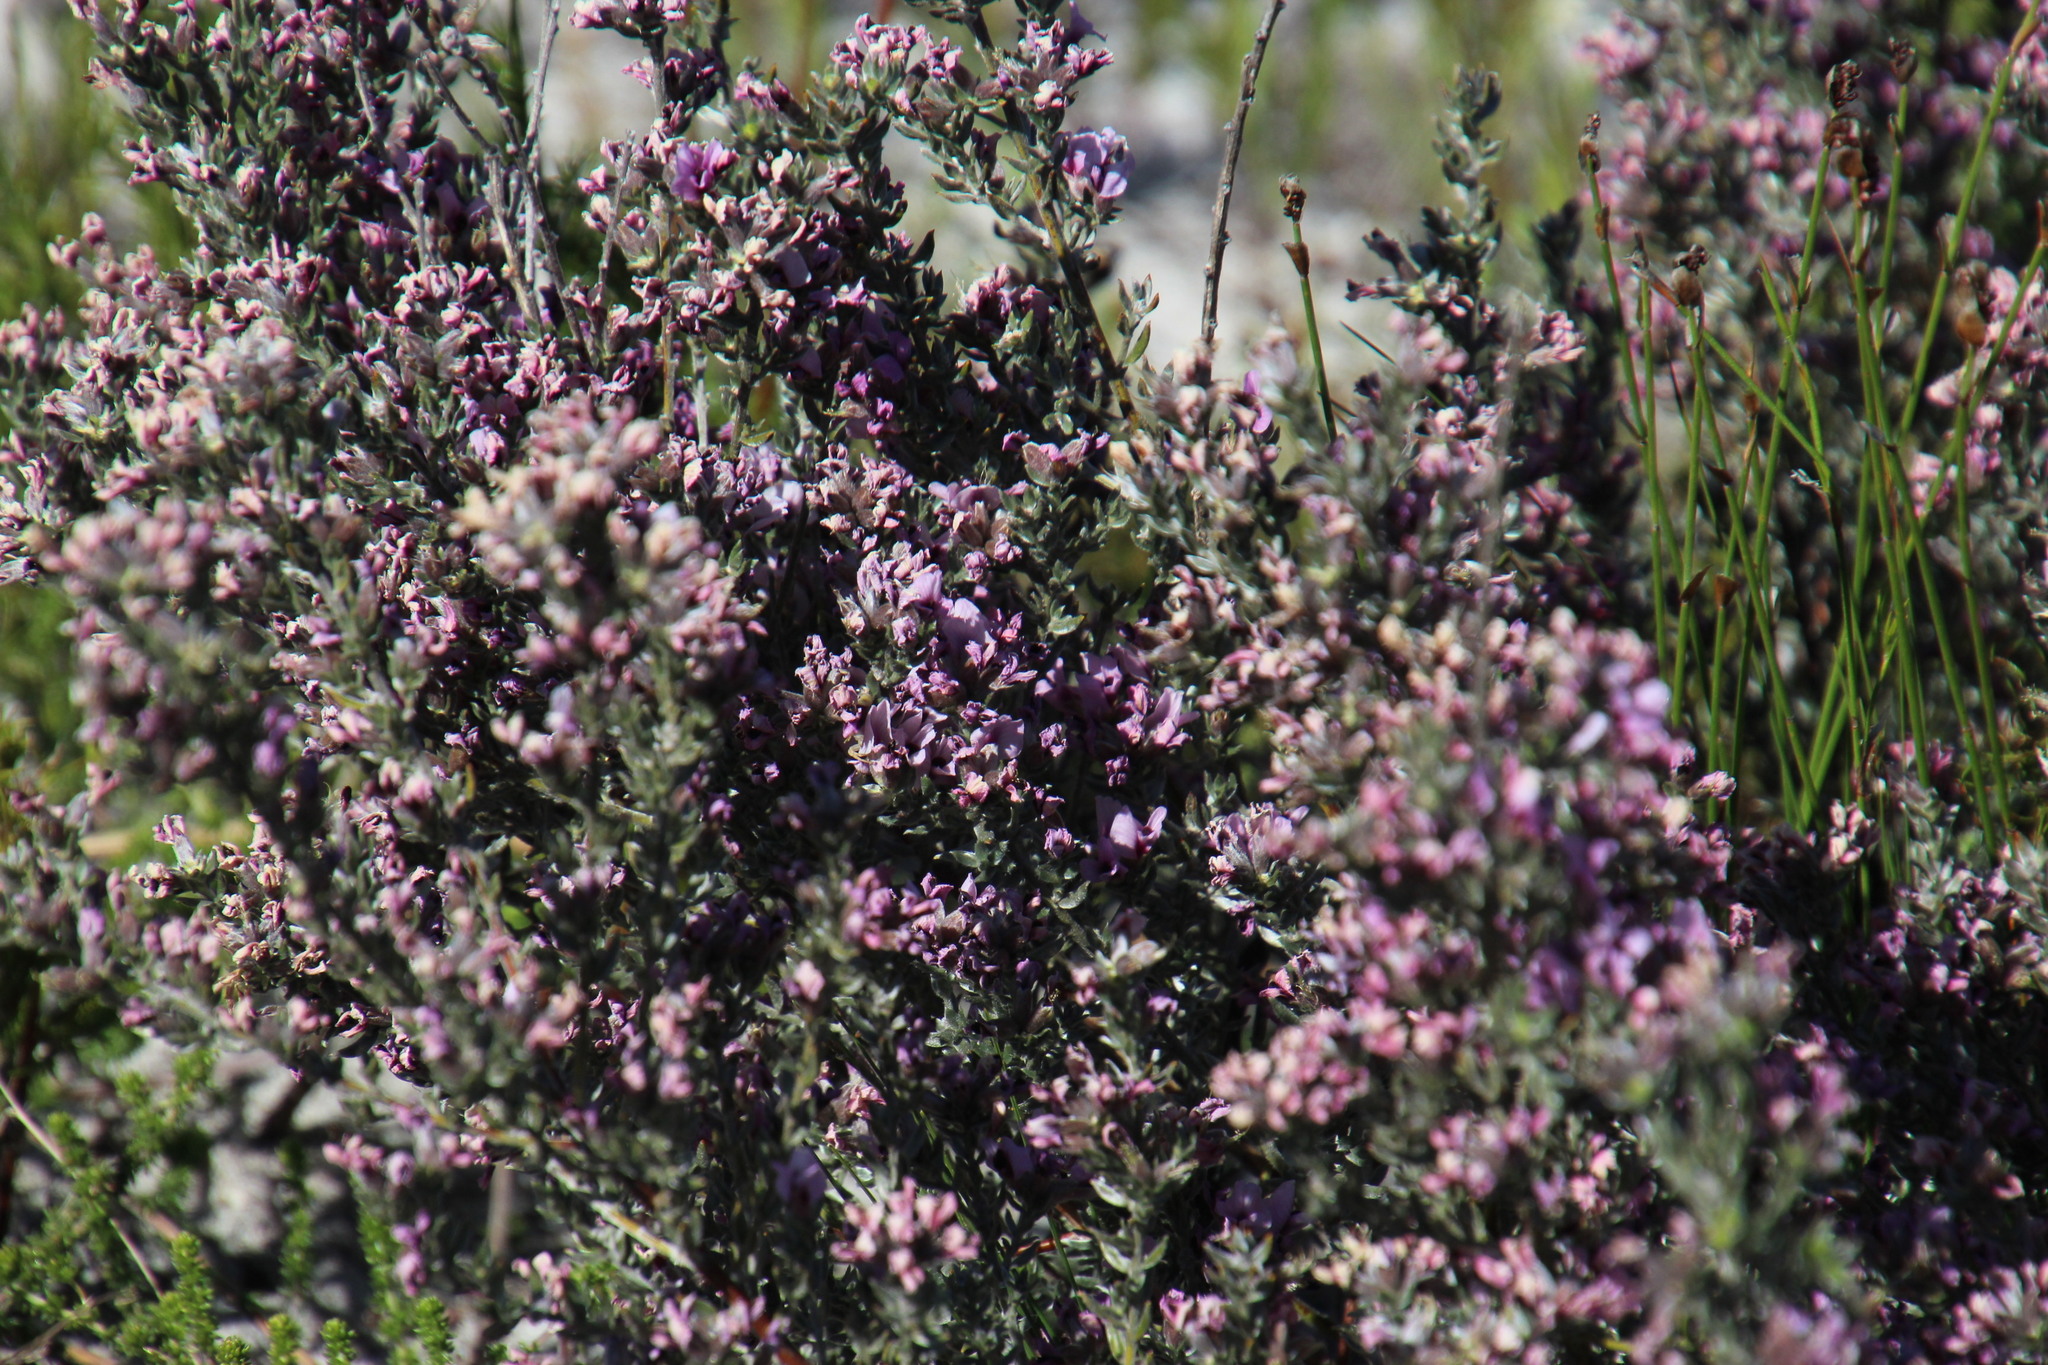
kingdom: Plantae
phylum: Tracheophyta
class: Magnoliopsida
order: Fabales
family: Fabaceae
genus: Amphithalea
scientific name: Amphithalea ericifolia
